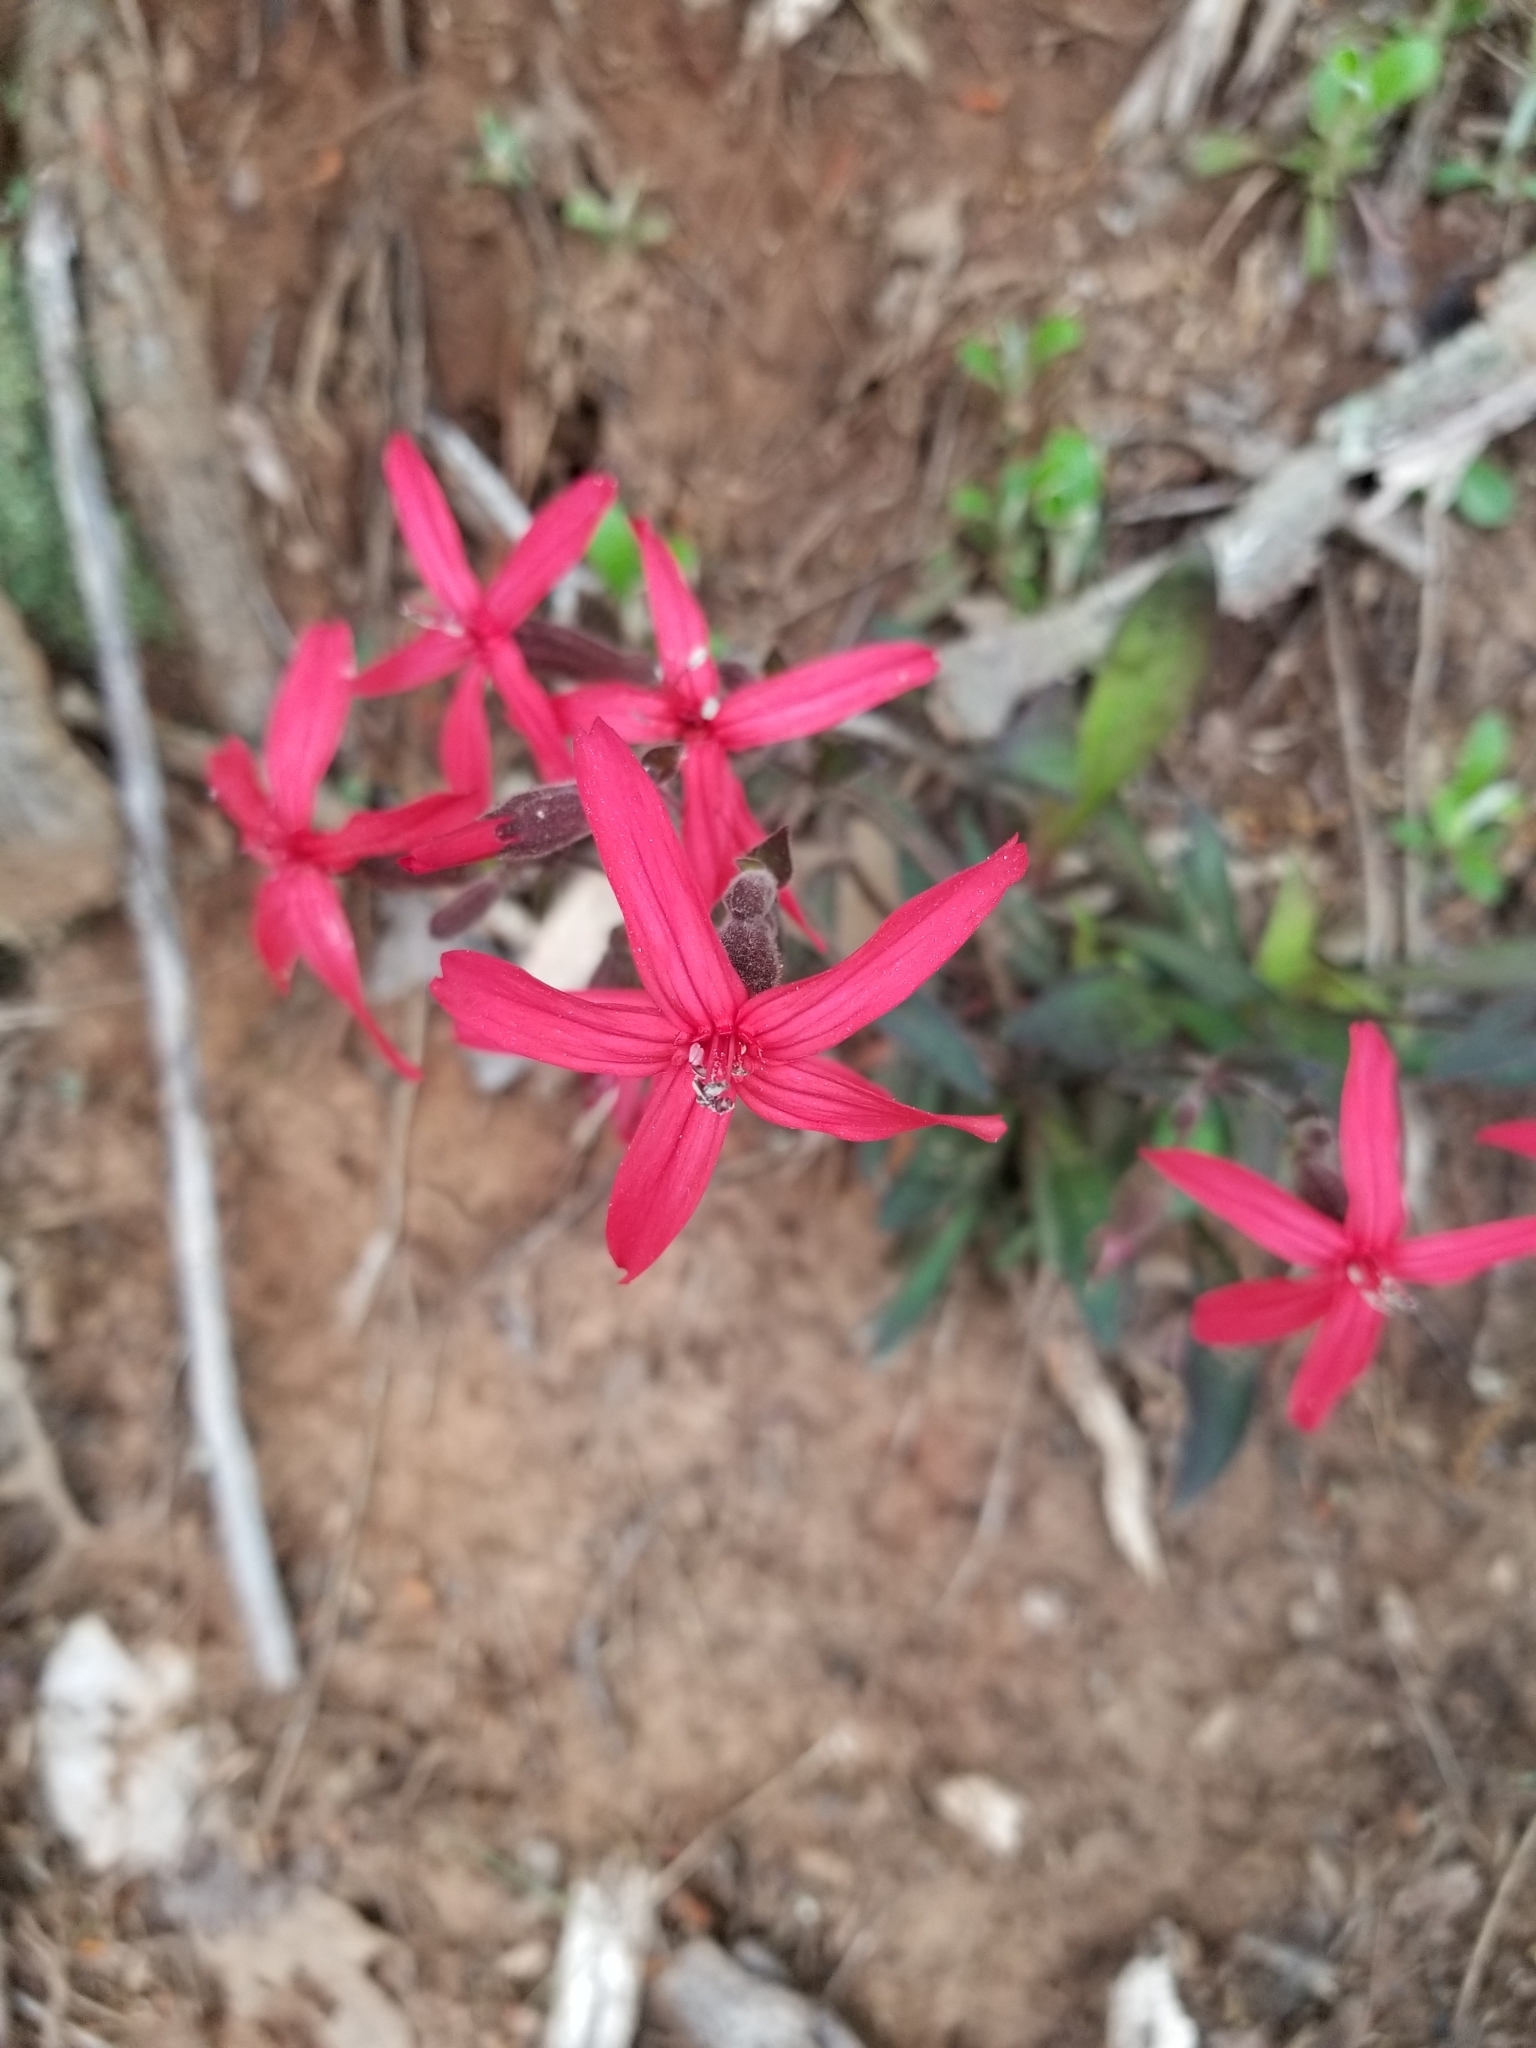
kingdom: Plantae
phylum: Tracheophyta
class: Magnoliopsida
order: Caryophyllales
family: Caryophyllaceae
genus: Silene
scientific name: Silene virginica
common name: Fire-pink
